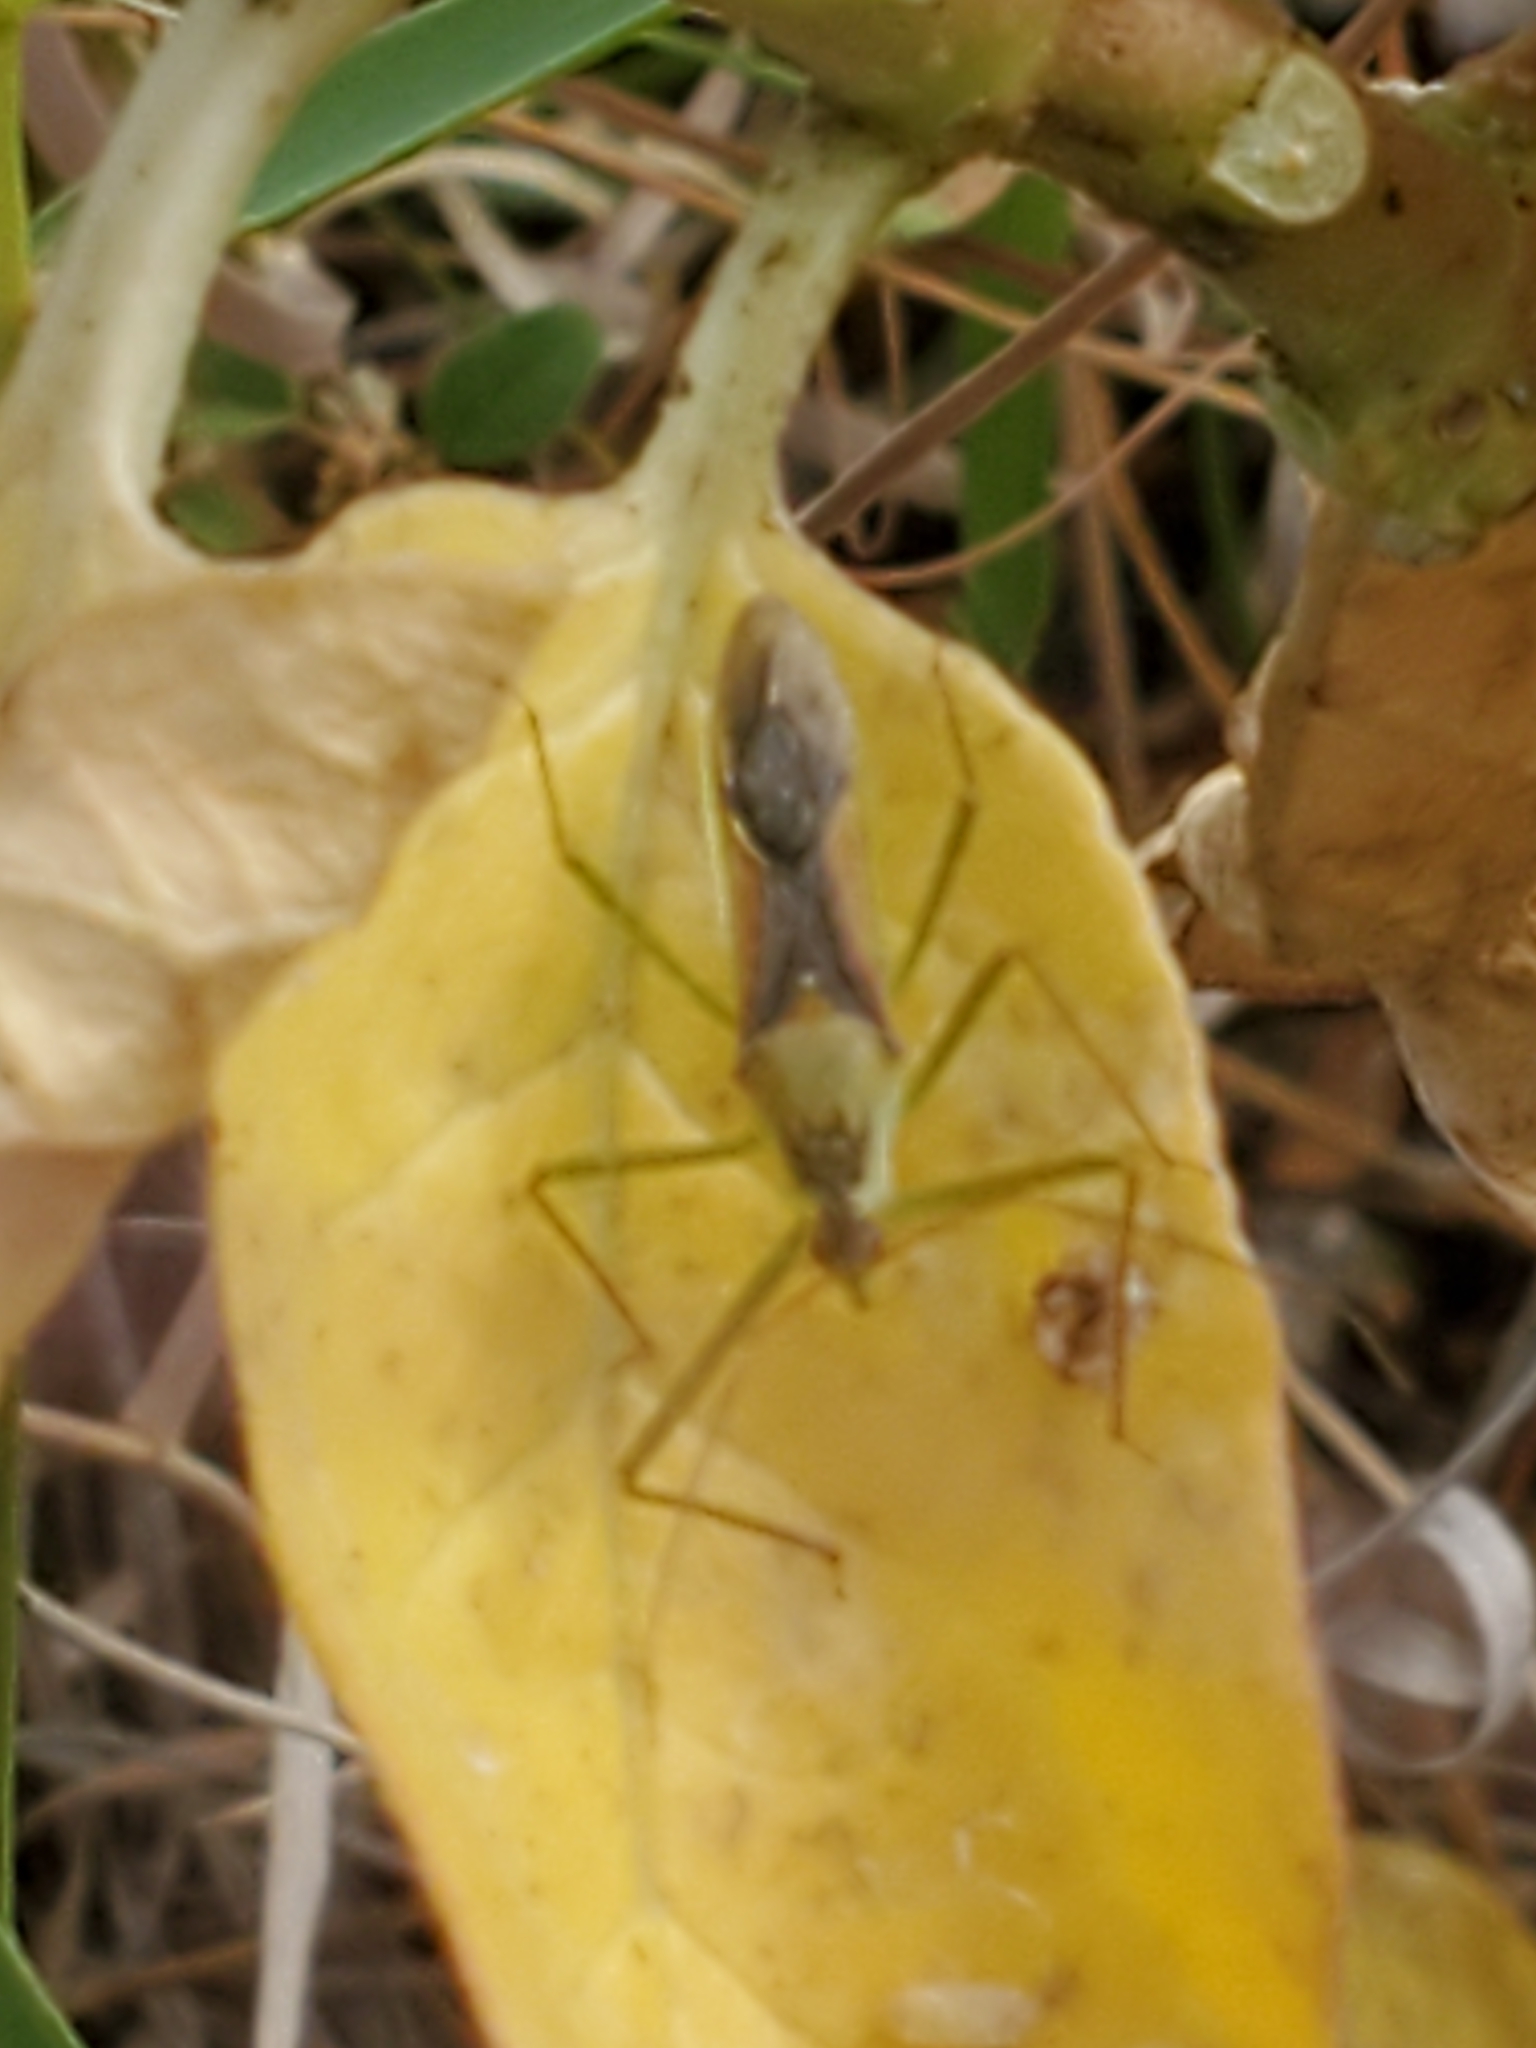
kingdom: Animalia
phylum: Arthropoda
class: Insecta
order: Hemiptera
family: Reduviidae
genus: Zelus
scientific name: Zelus renardii
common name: Assassin bug
